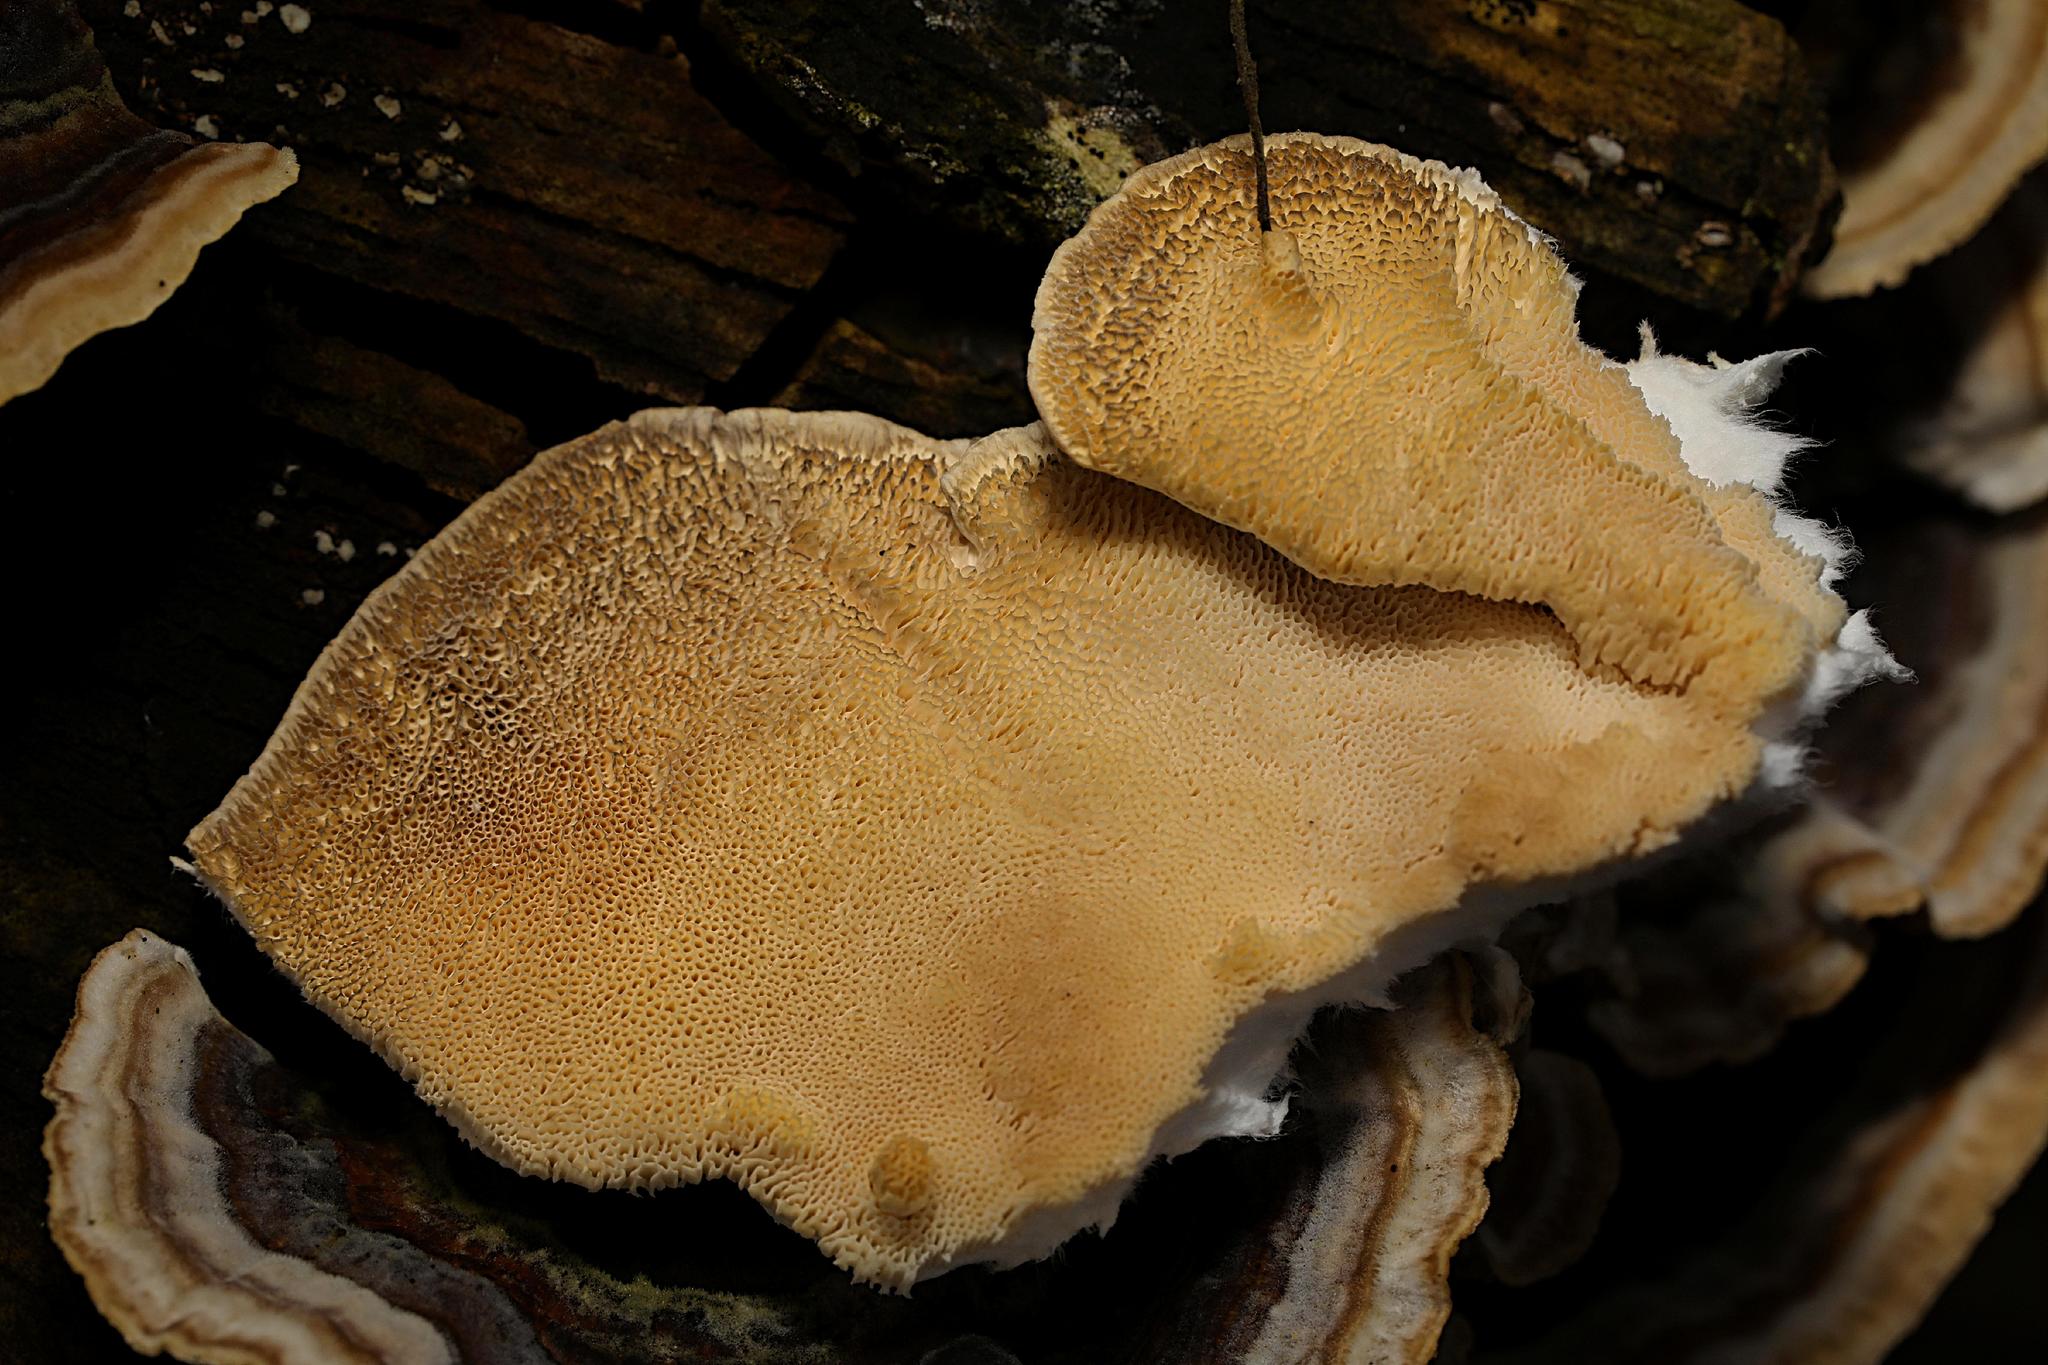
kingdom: Fungi
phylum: Basidiomycota
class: Agaricomycetes
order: Polyporales
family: Polyporaceae
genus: Trametes
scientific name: Trametes versicolor
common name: Turkeytail
